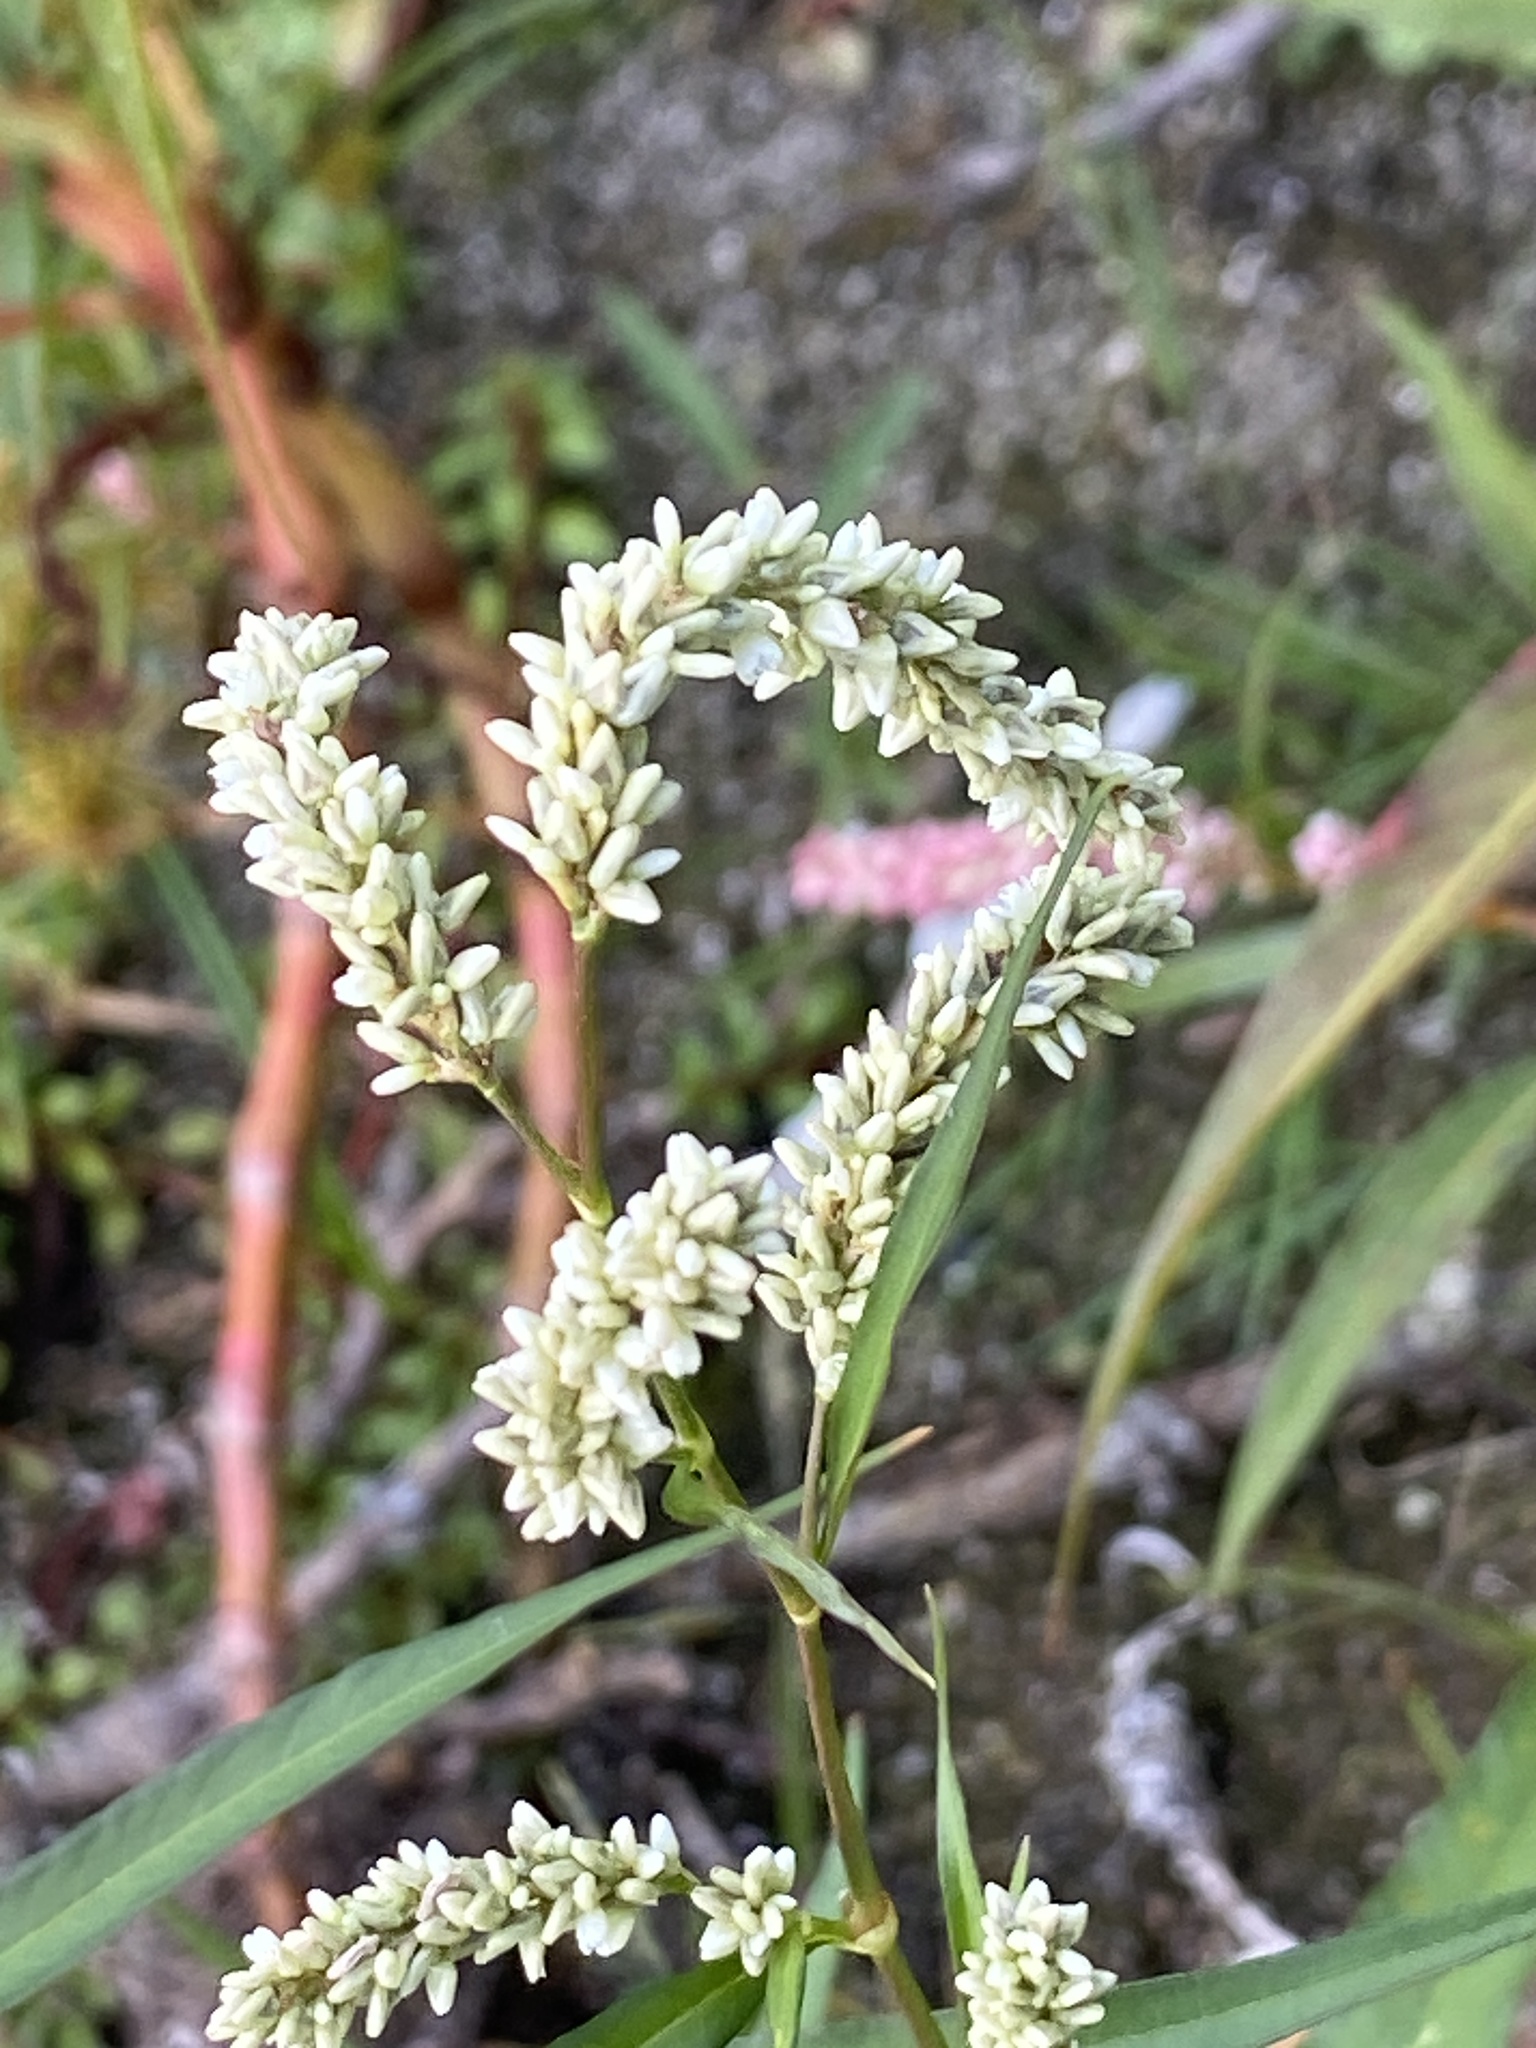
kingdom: Plantae
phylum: Tracheophyta
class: Magnoliopsida
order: Caryophyllales
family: Polygonaceae
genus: Persicaria
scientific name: Persicaria lapathifolia
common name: Curlytop knotweed
